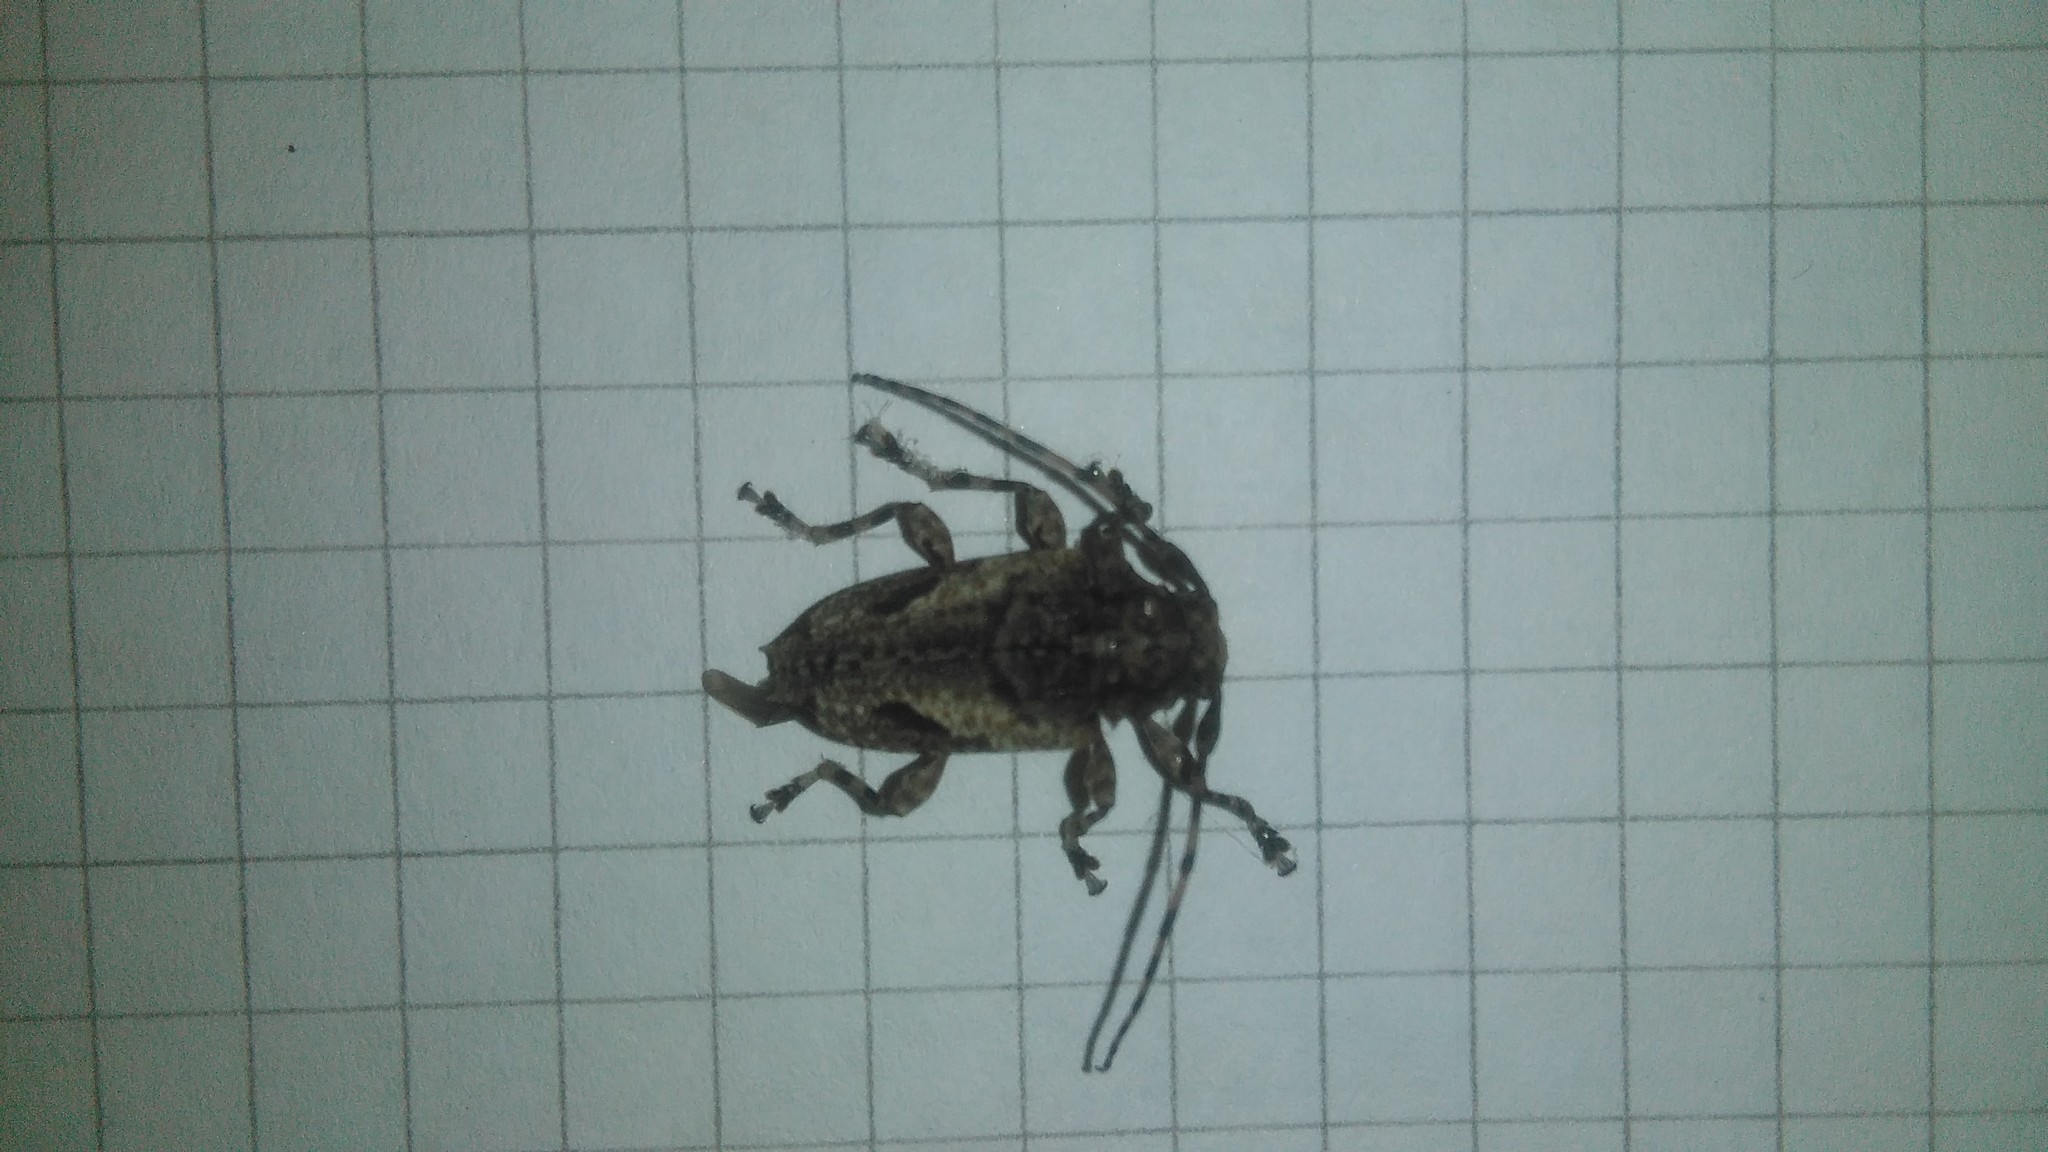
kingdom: Animalia
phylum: Arthropoda
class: Insecta
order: Coleoptera
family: Cerambycidae
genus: Psapharochrus
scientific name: Psapharochrus jaspideus
